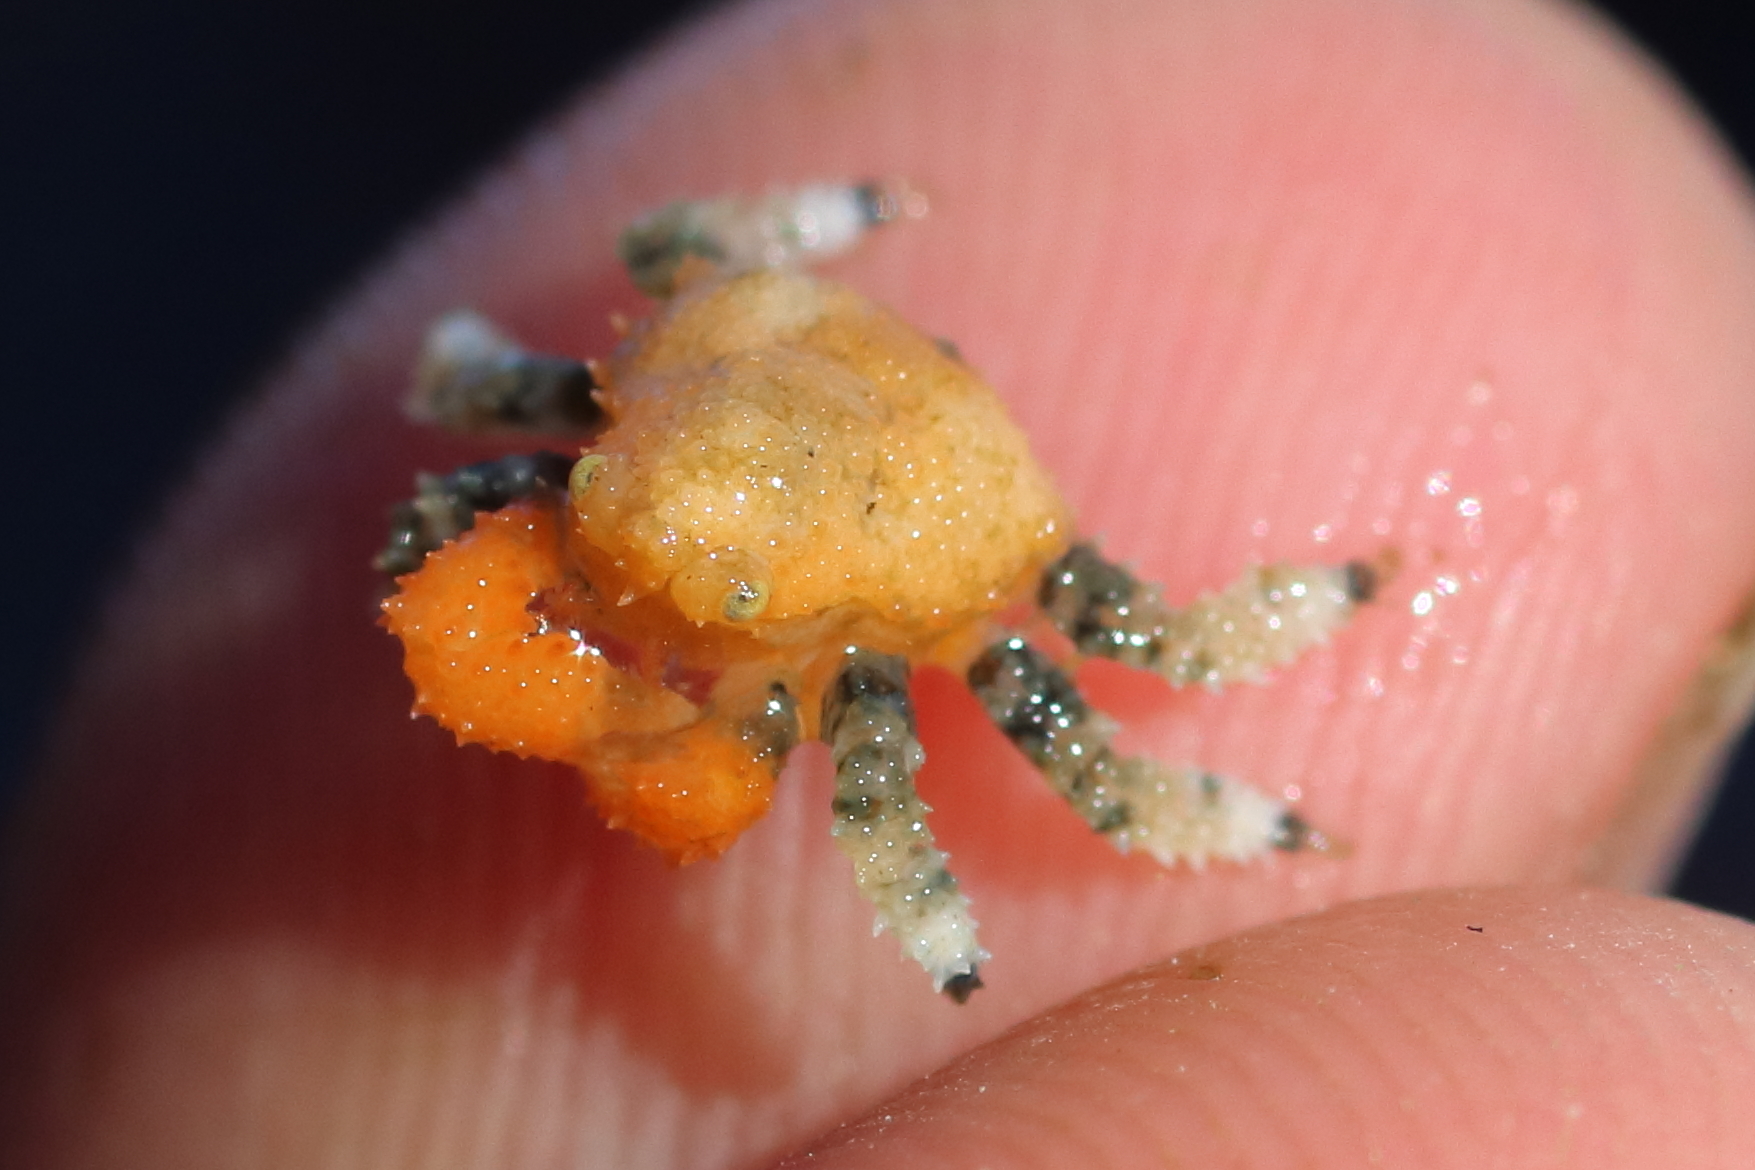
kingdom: Animalia
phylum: Arthropoda
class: Malacostraca
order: Decapoda
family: Lithodidae
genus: Phyllolithodes
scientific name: Phyllolithodes papillosus
